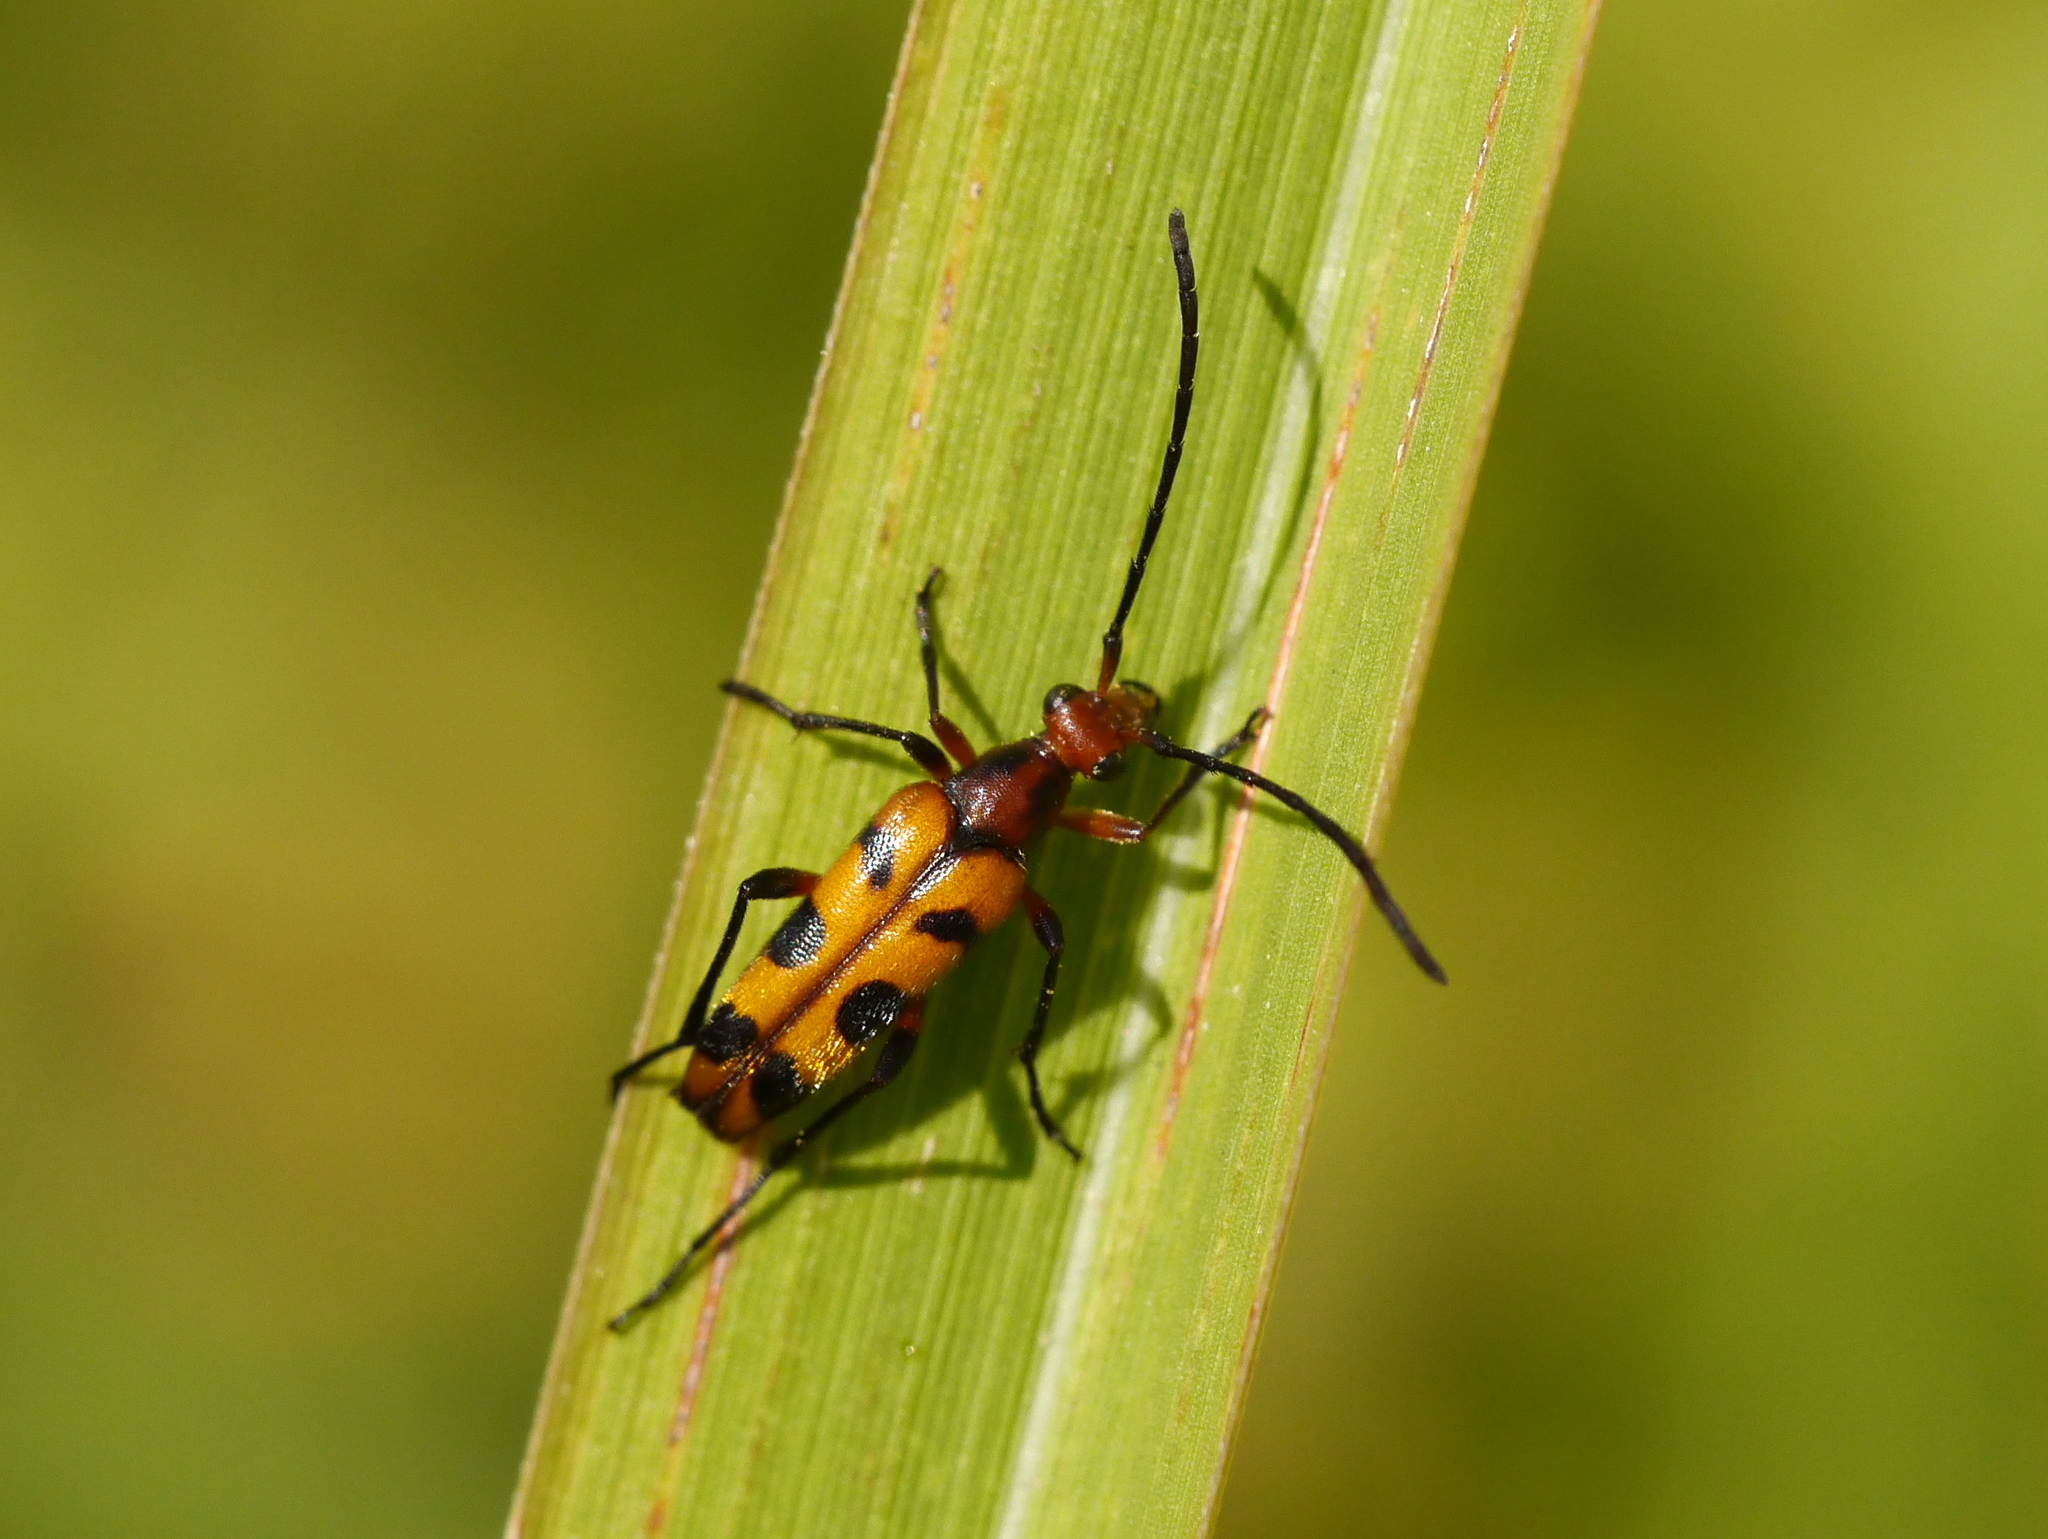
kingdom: Animalia
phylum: Arthropoda
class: Insecta
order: Coleoptera
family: Cerambycidae
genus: Strangalia
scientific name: Strangalia sexnotata
